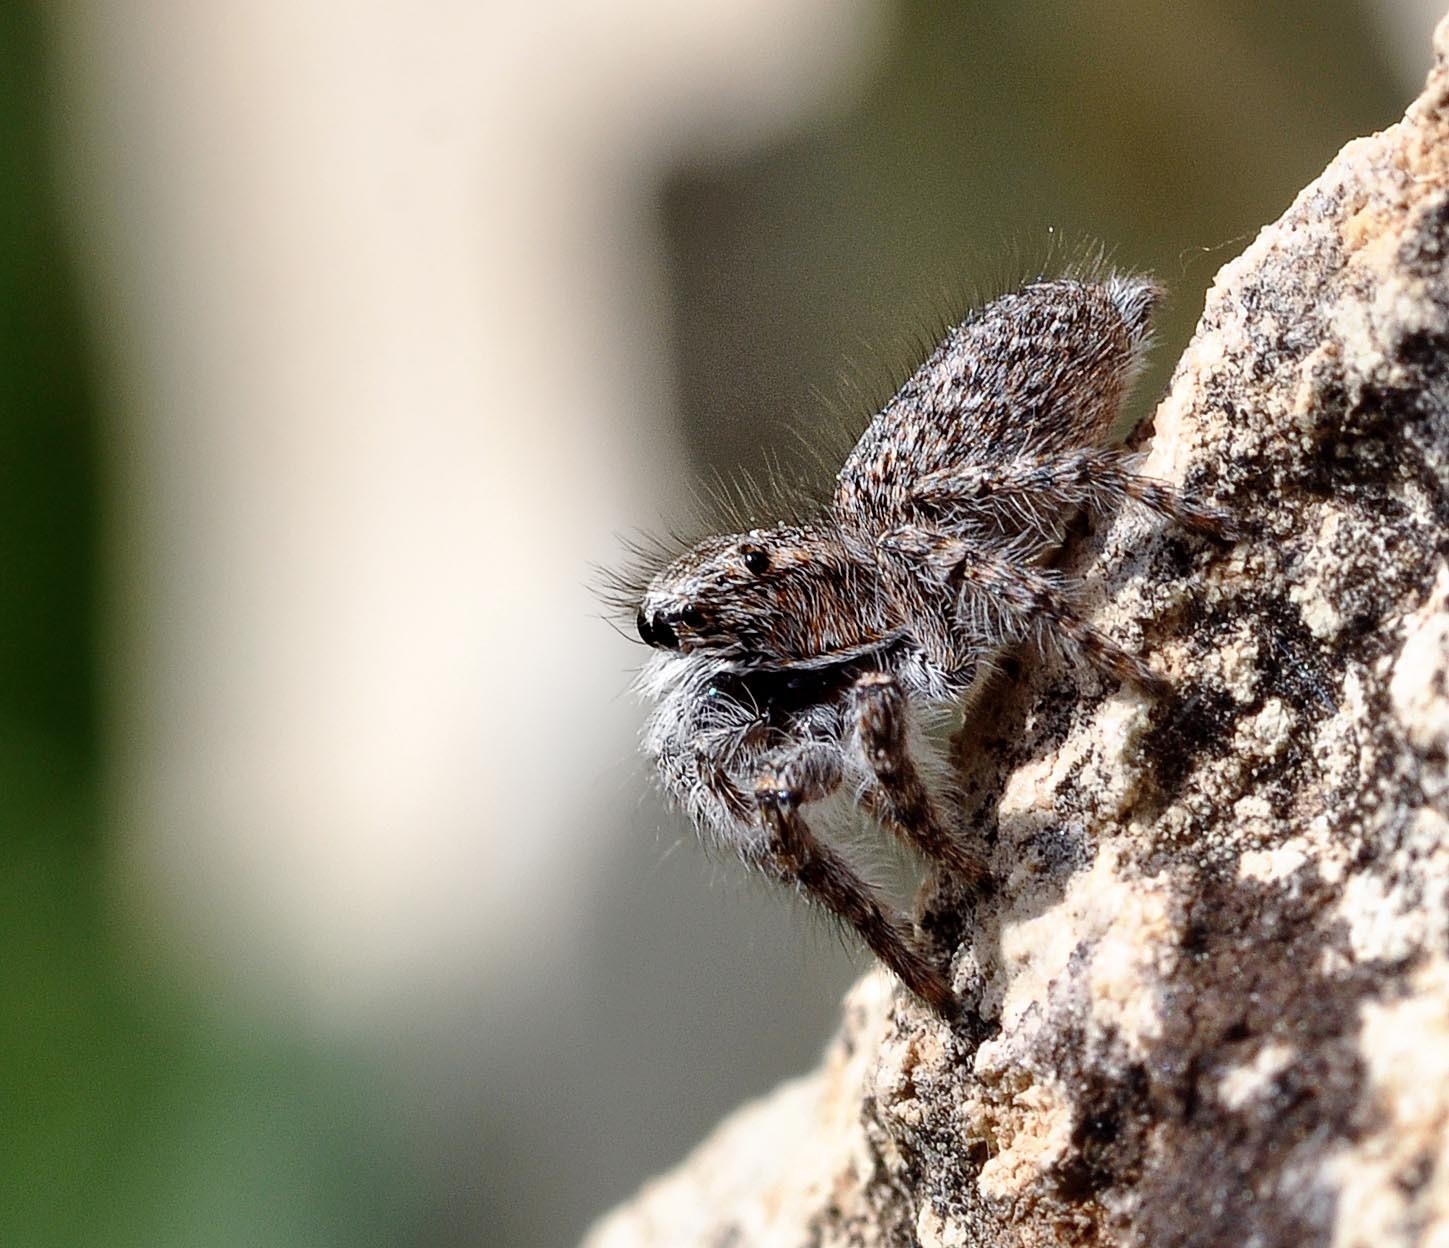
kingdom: Animalia
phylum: Arthropoda
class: Arachnida
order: Araneae
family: Salticidae
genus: Philaeus
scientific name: Philaeus chrysops
